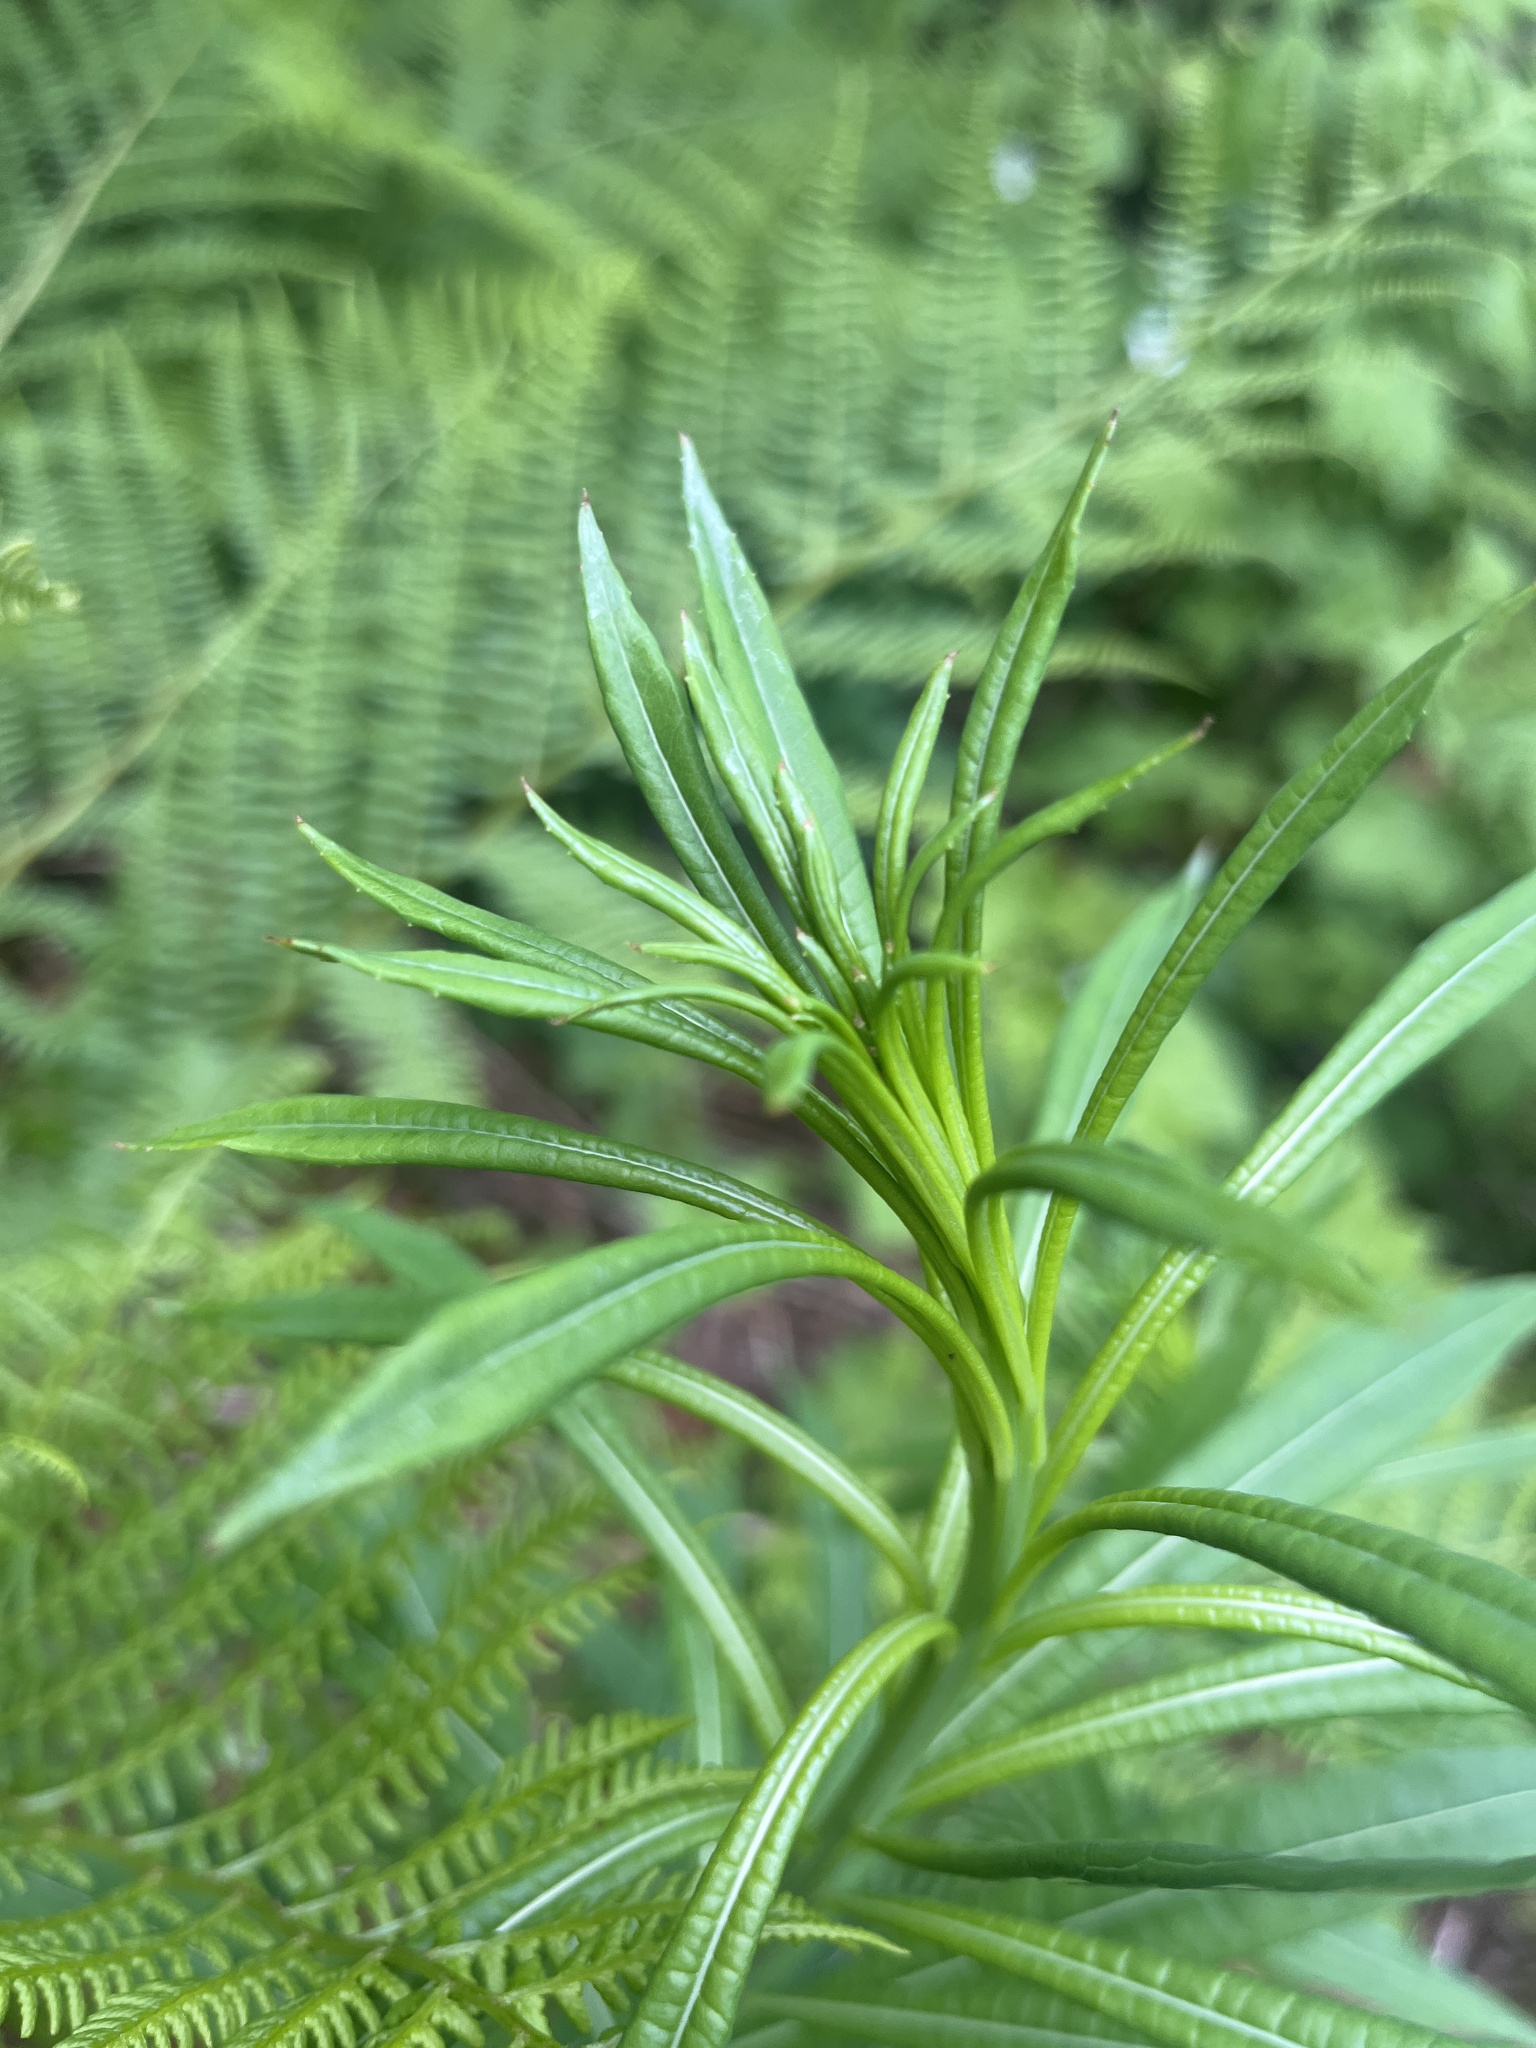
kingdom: Plantae
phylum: Tracheophyta
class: Magnoliopsida
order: Myrtales
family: Onagraceae
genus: Chamaenerion
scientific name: Chamaenerion angustifolium
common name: Fireweed
